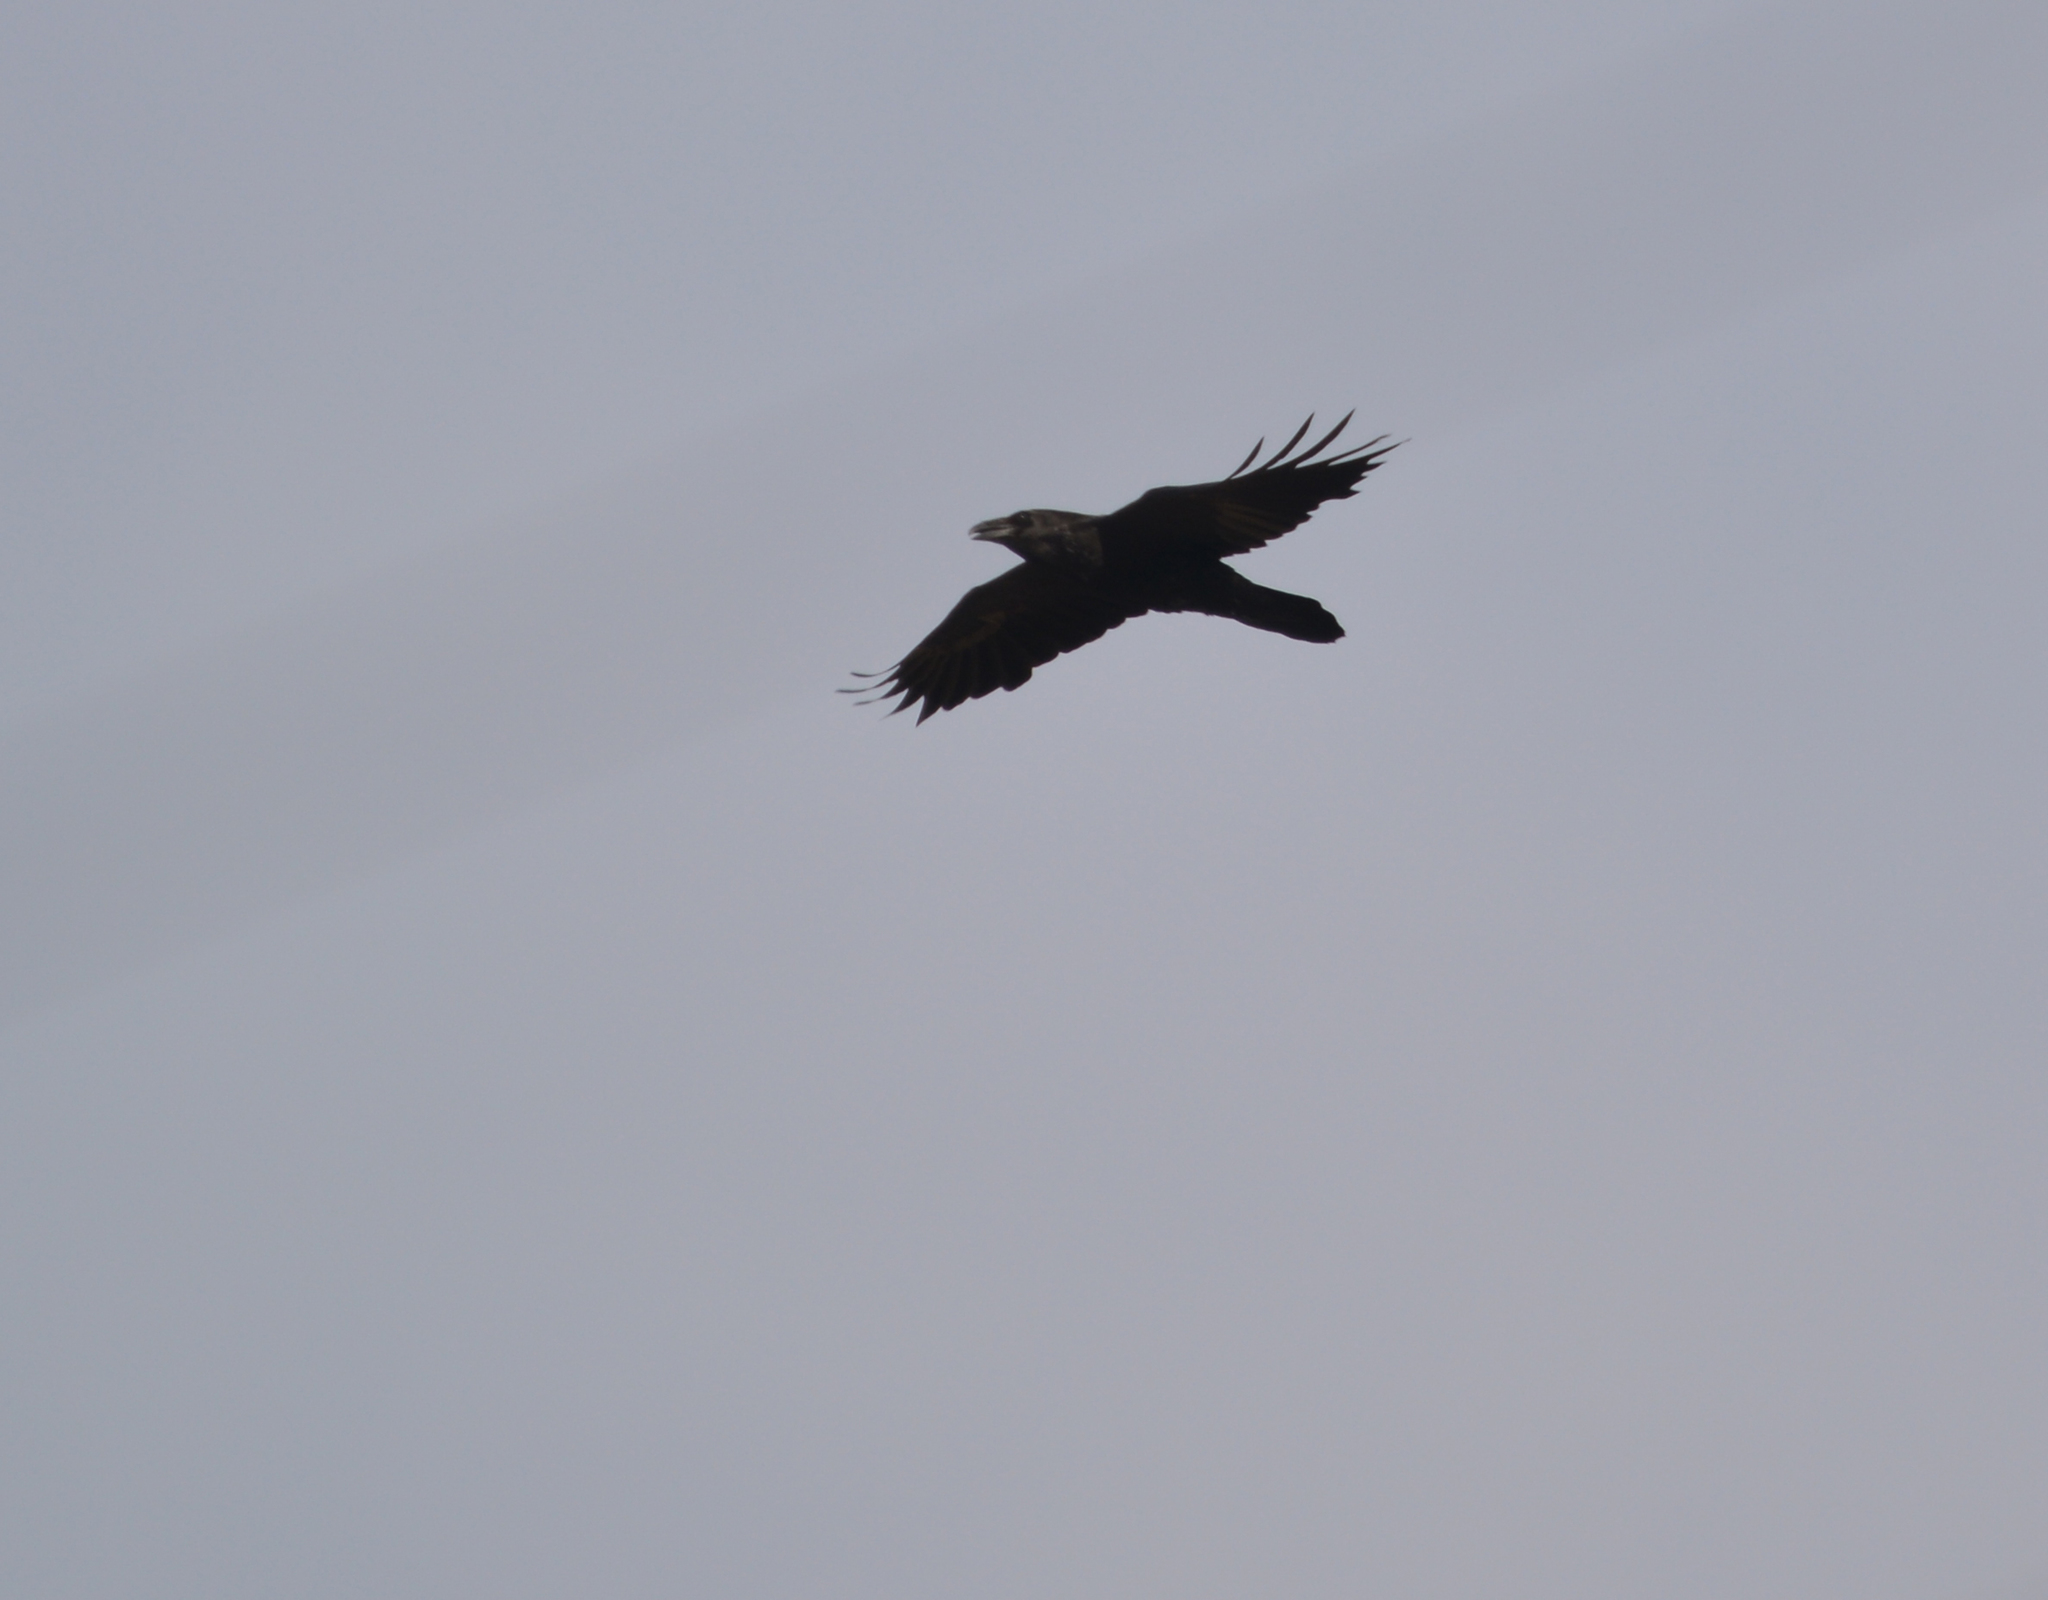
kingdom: Animalia
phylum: Chordata
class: Aves
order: Passeriformes
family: Corvidae
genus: Corvus
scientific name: Corvus corax
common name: Common raven
